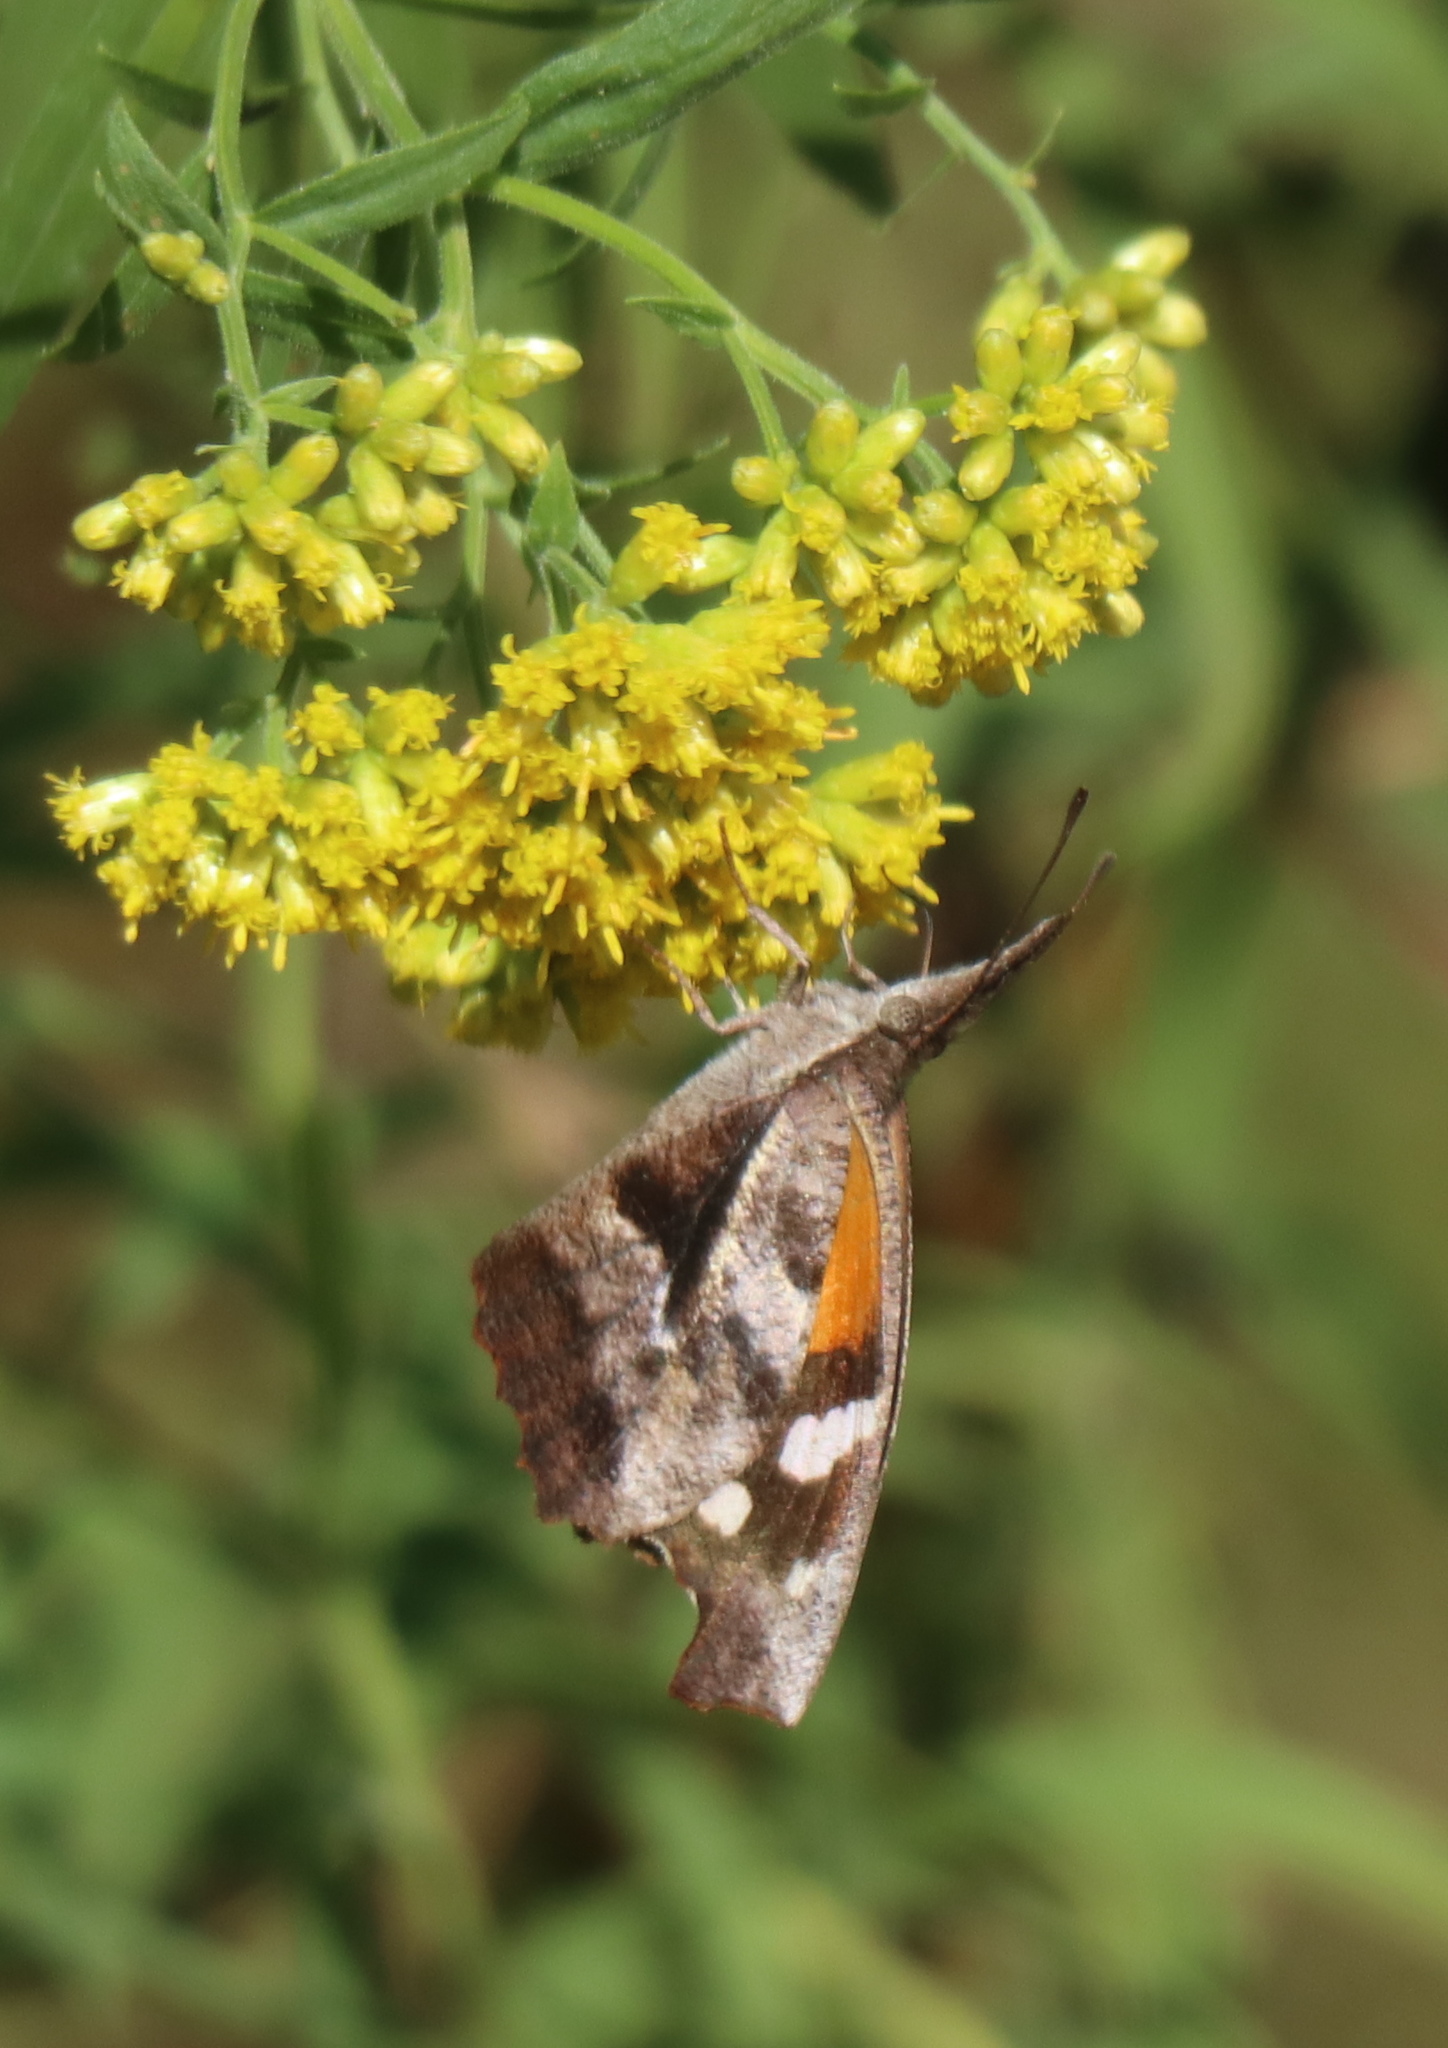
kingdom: Animalia
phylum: Arthropoda
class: Insecta
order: Lepidoptera
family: Nymphalidae
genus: Libytheana
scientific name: Libytheana carinenta
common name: American snout
